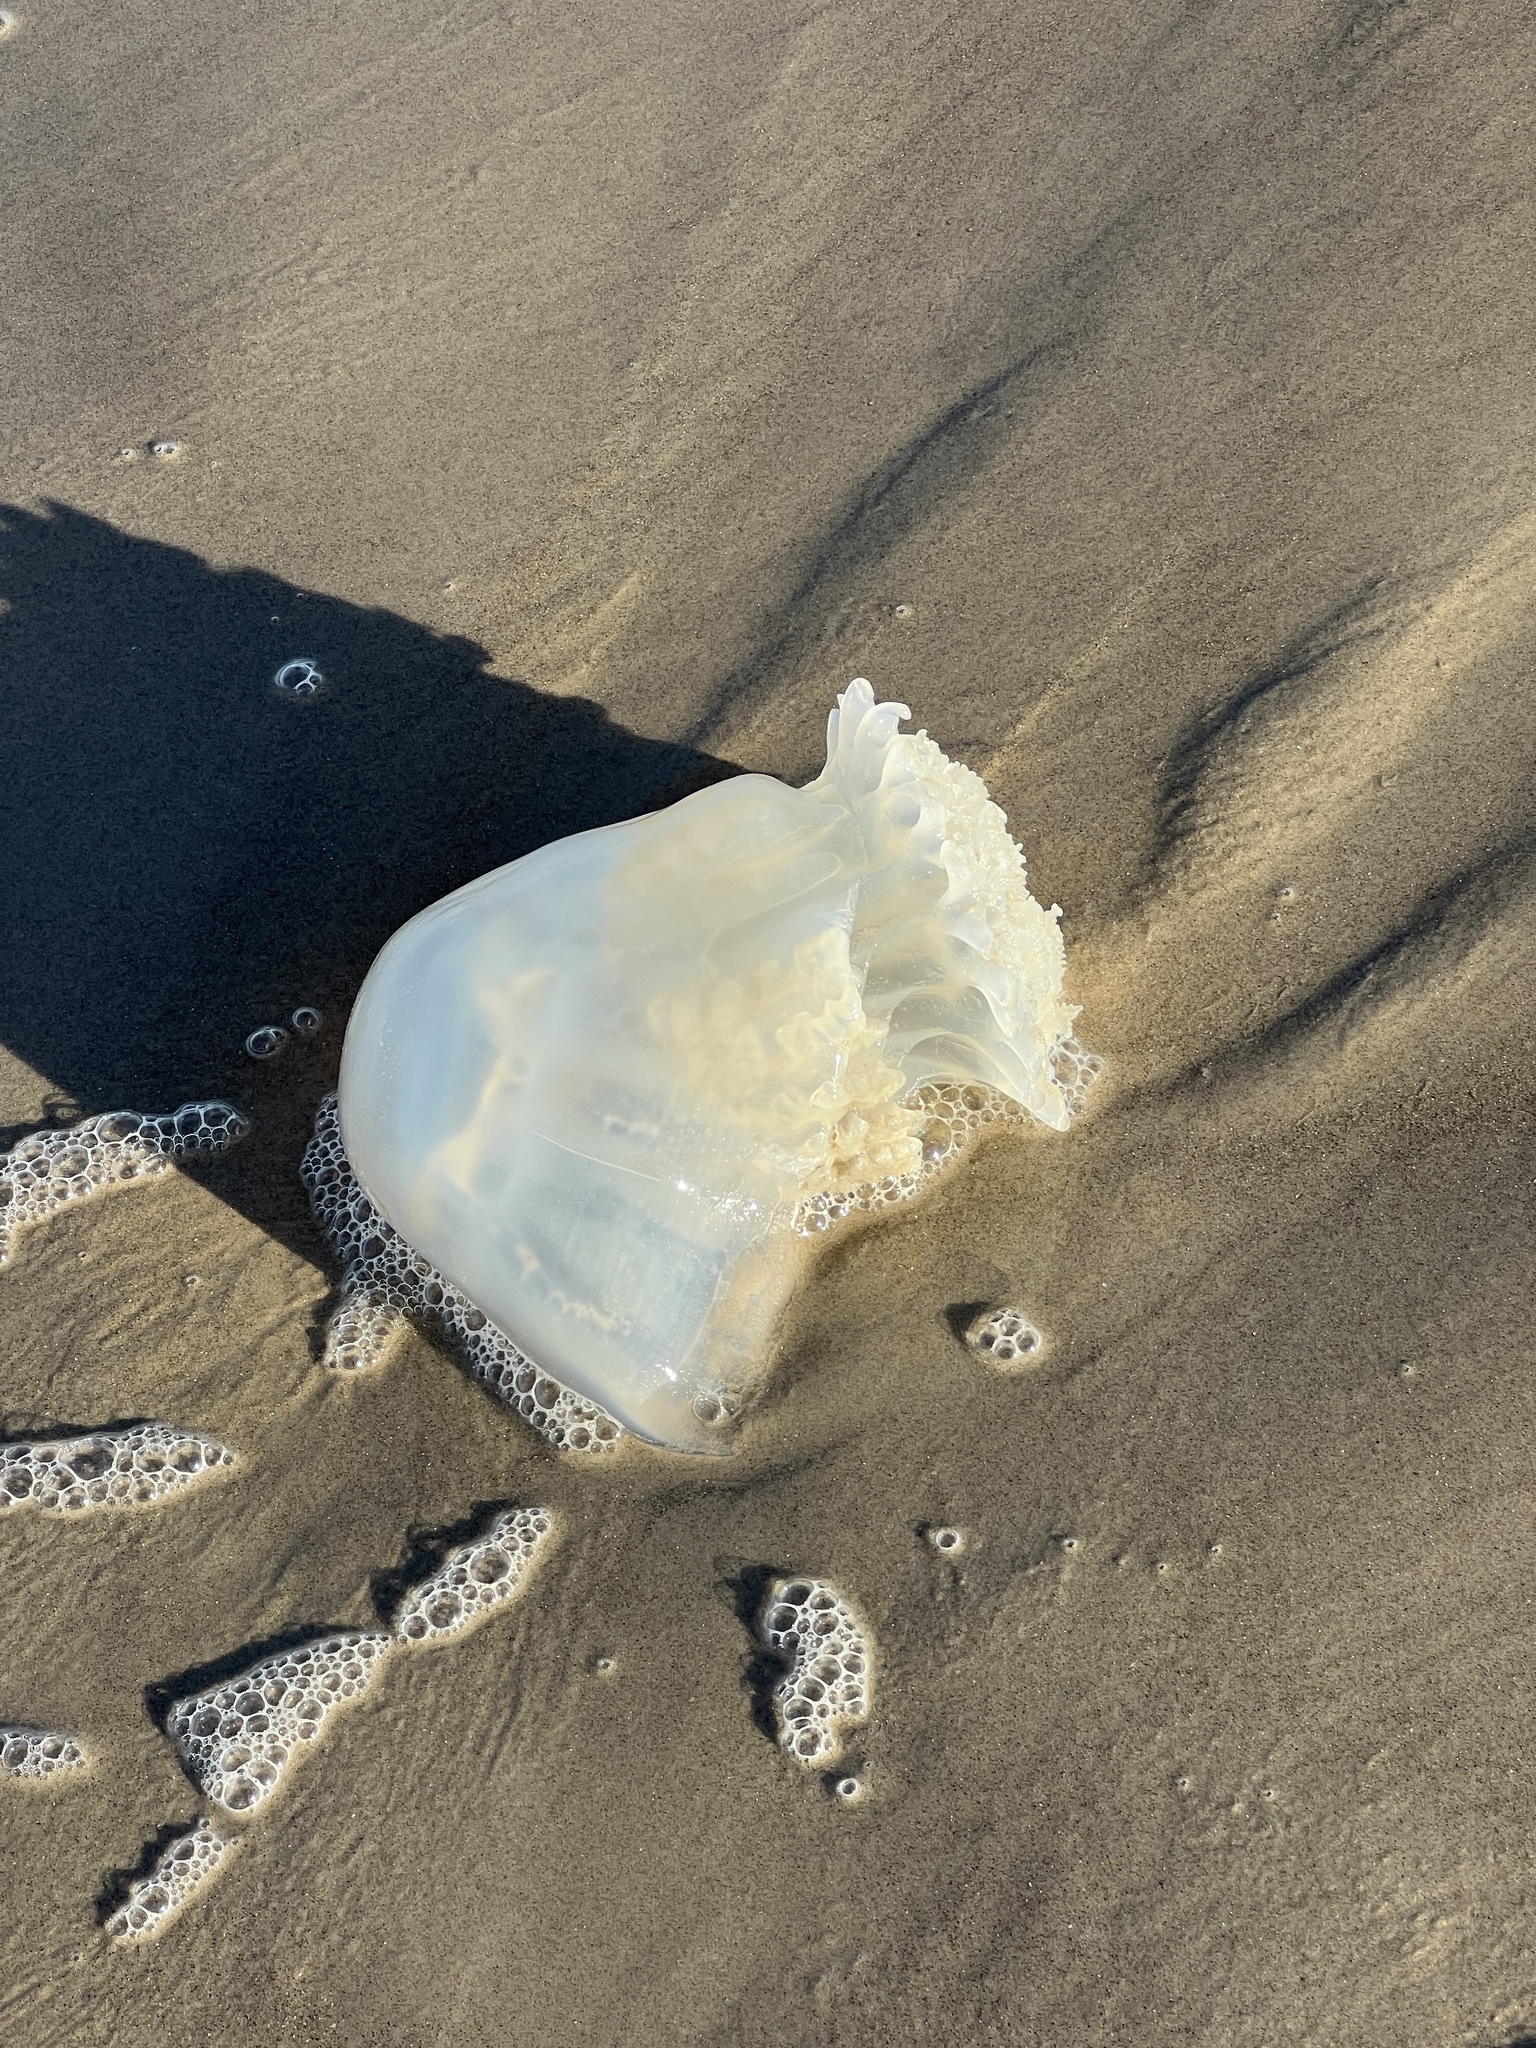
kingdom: Animalia
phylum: Cnidaria
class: Scyphozoa
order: Rhizostomeae
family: Stomolophidae
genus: Stomolophus
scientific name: Stomolophus meleagris
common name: Cabbagehead
